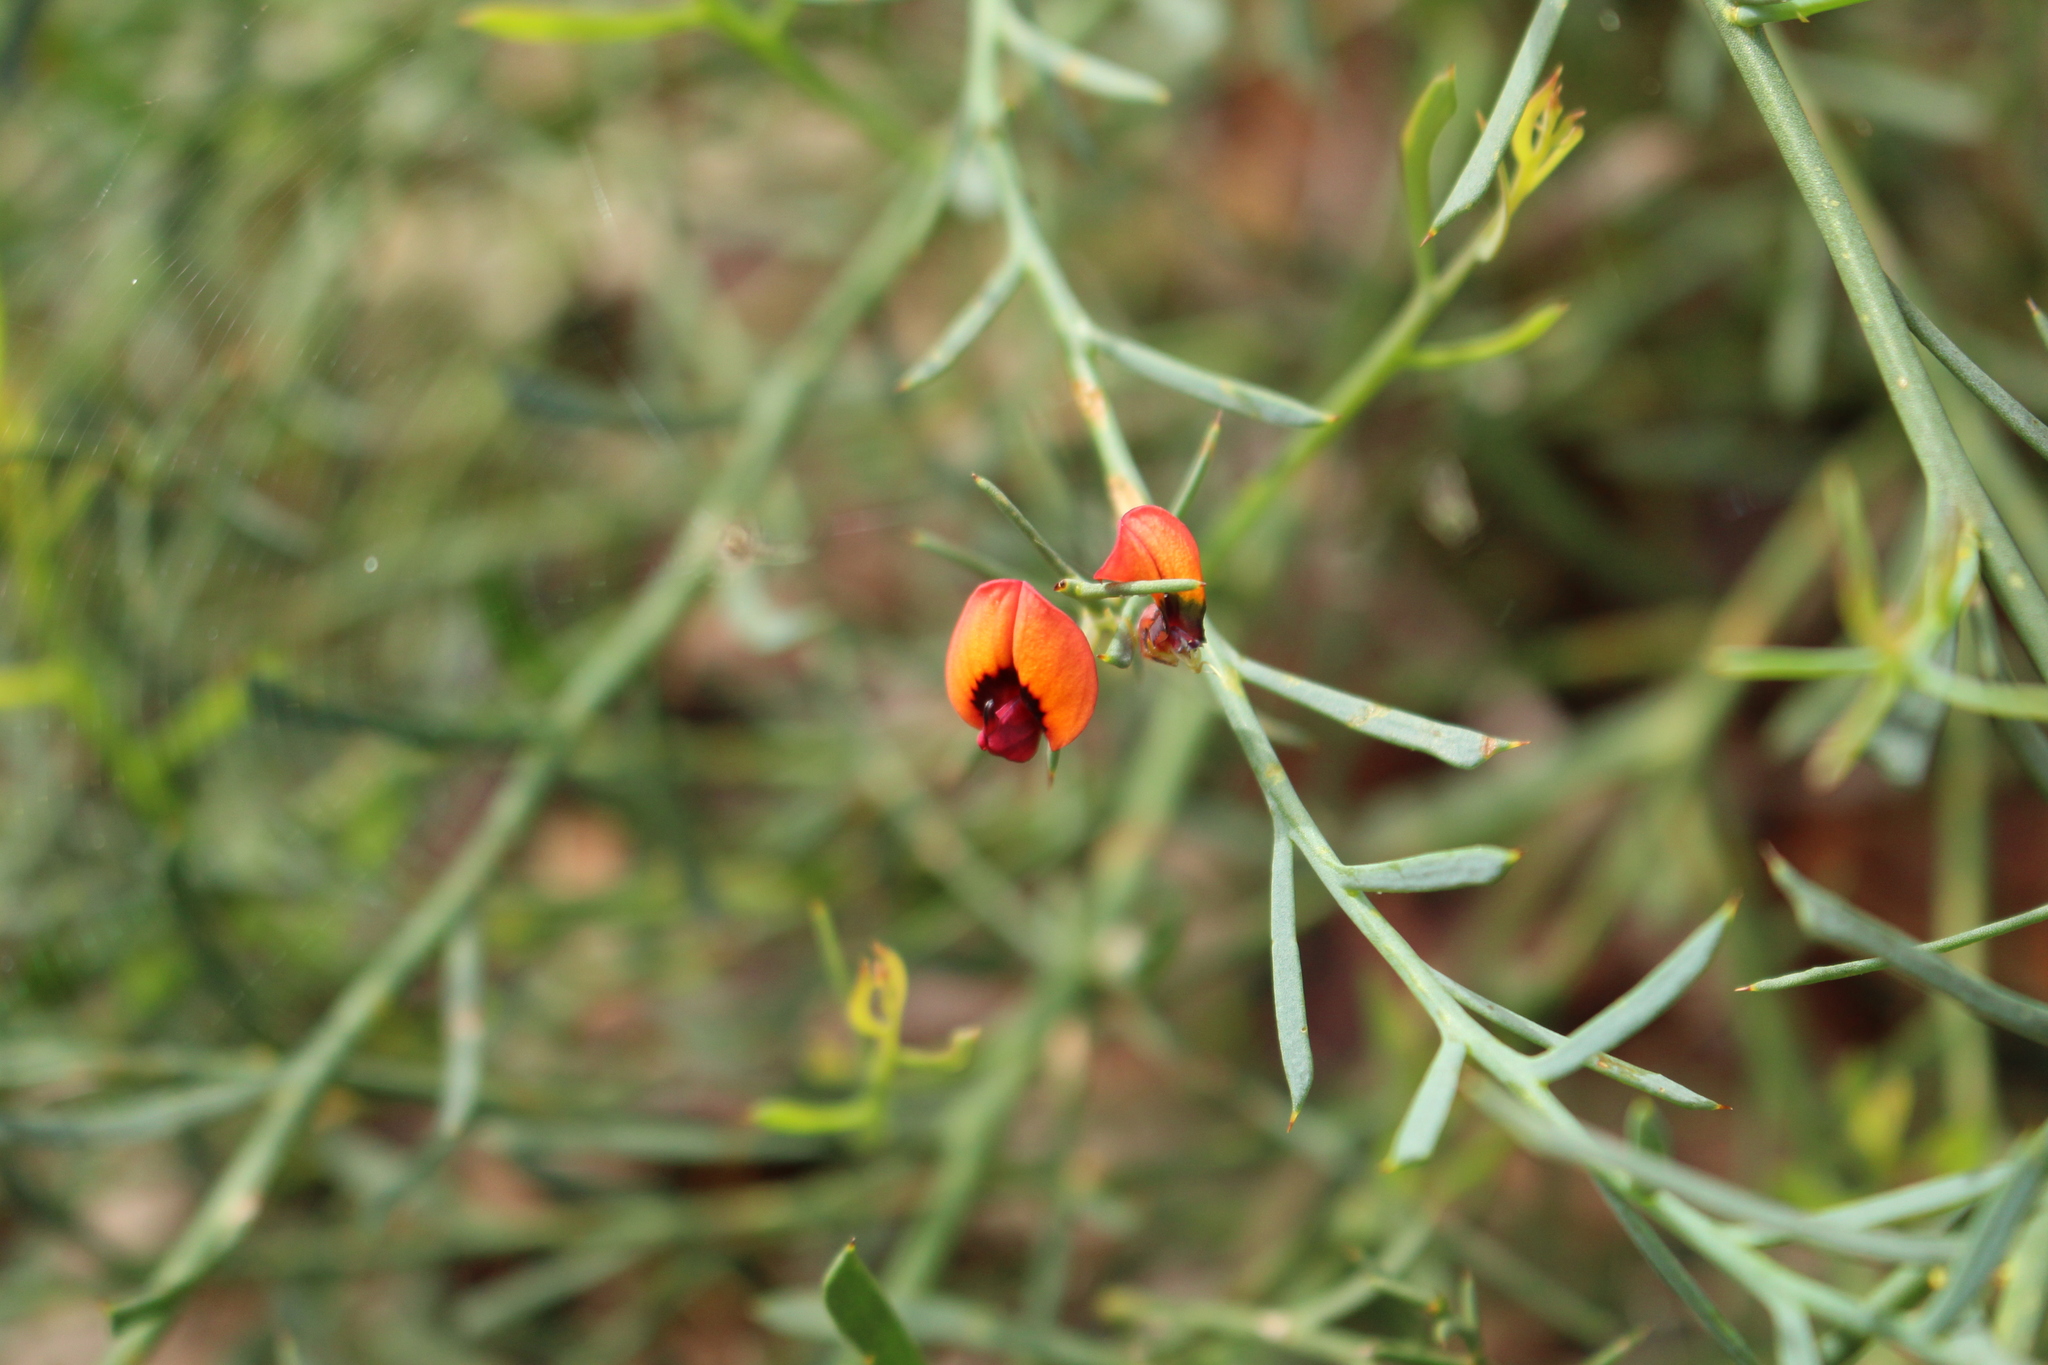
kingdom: Plantae
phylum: Tracheophyta
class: Magnoliopsida
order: Fabales
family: Fabaceae
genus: Daviesia
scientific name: Daviesia incrassata
